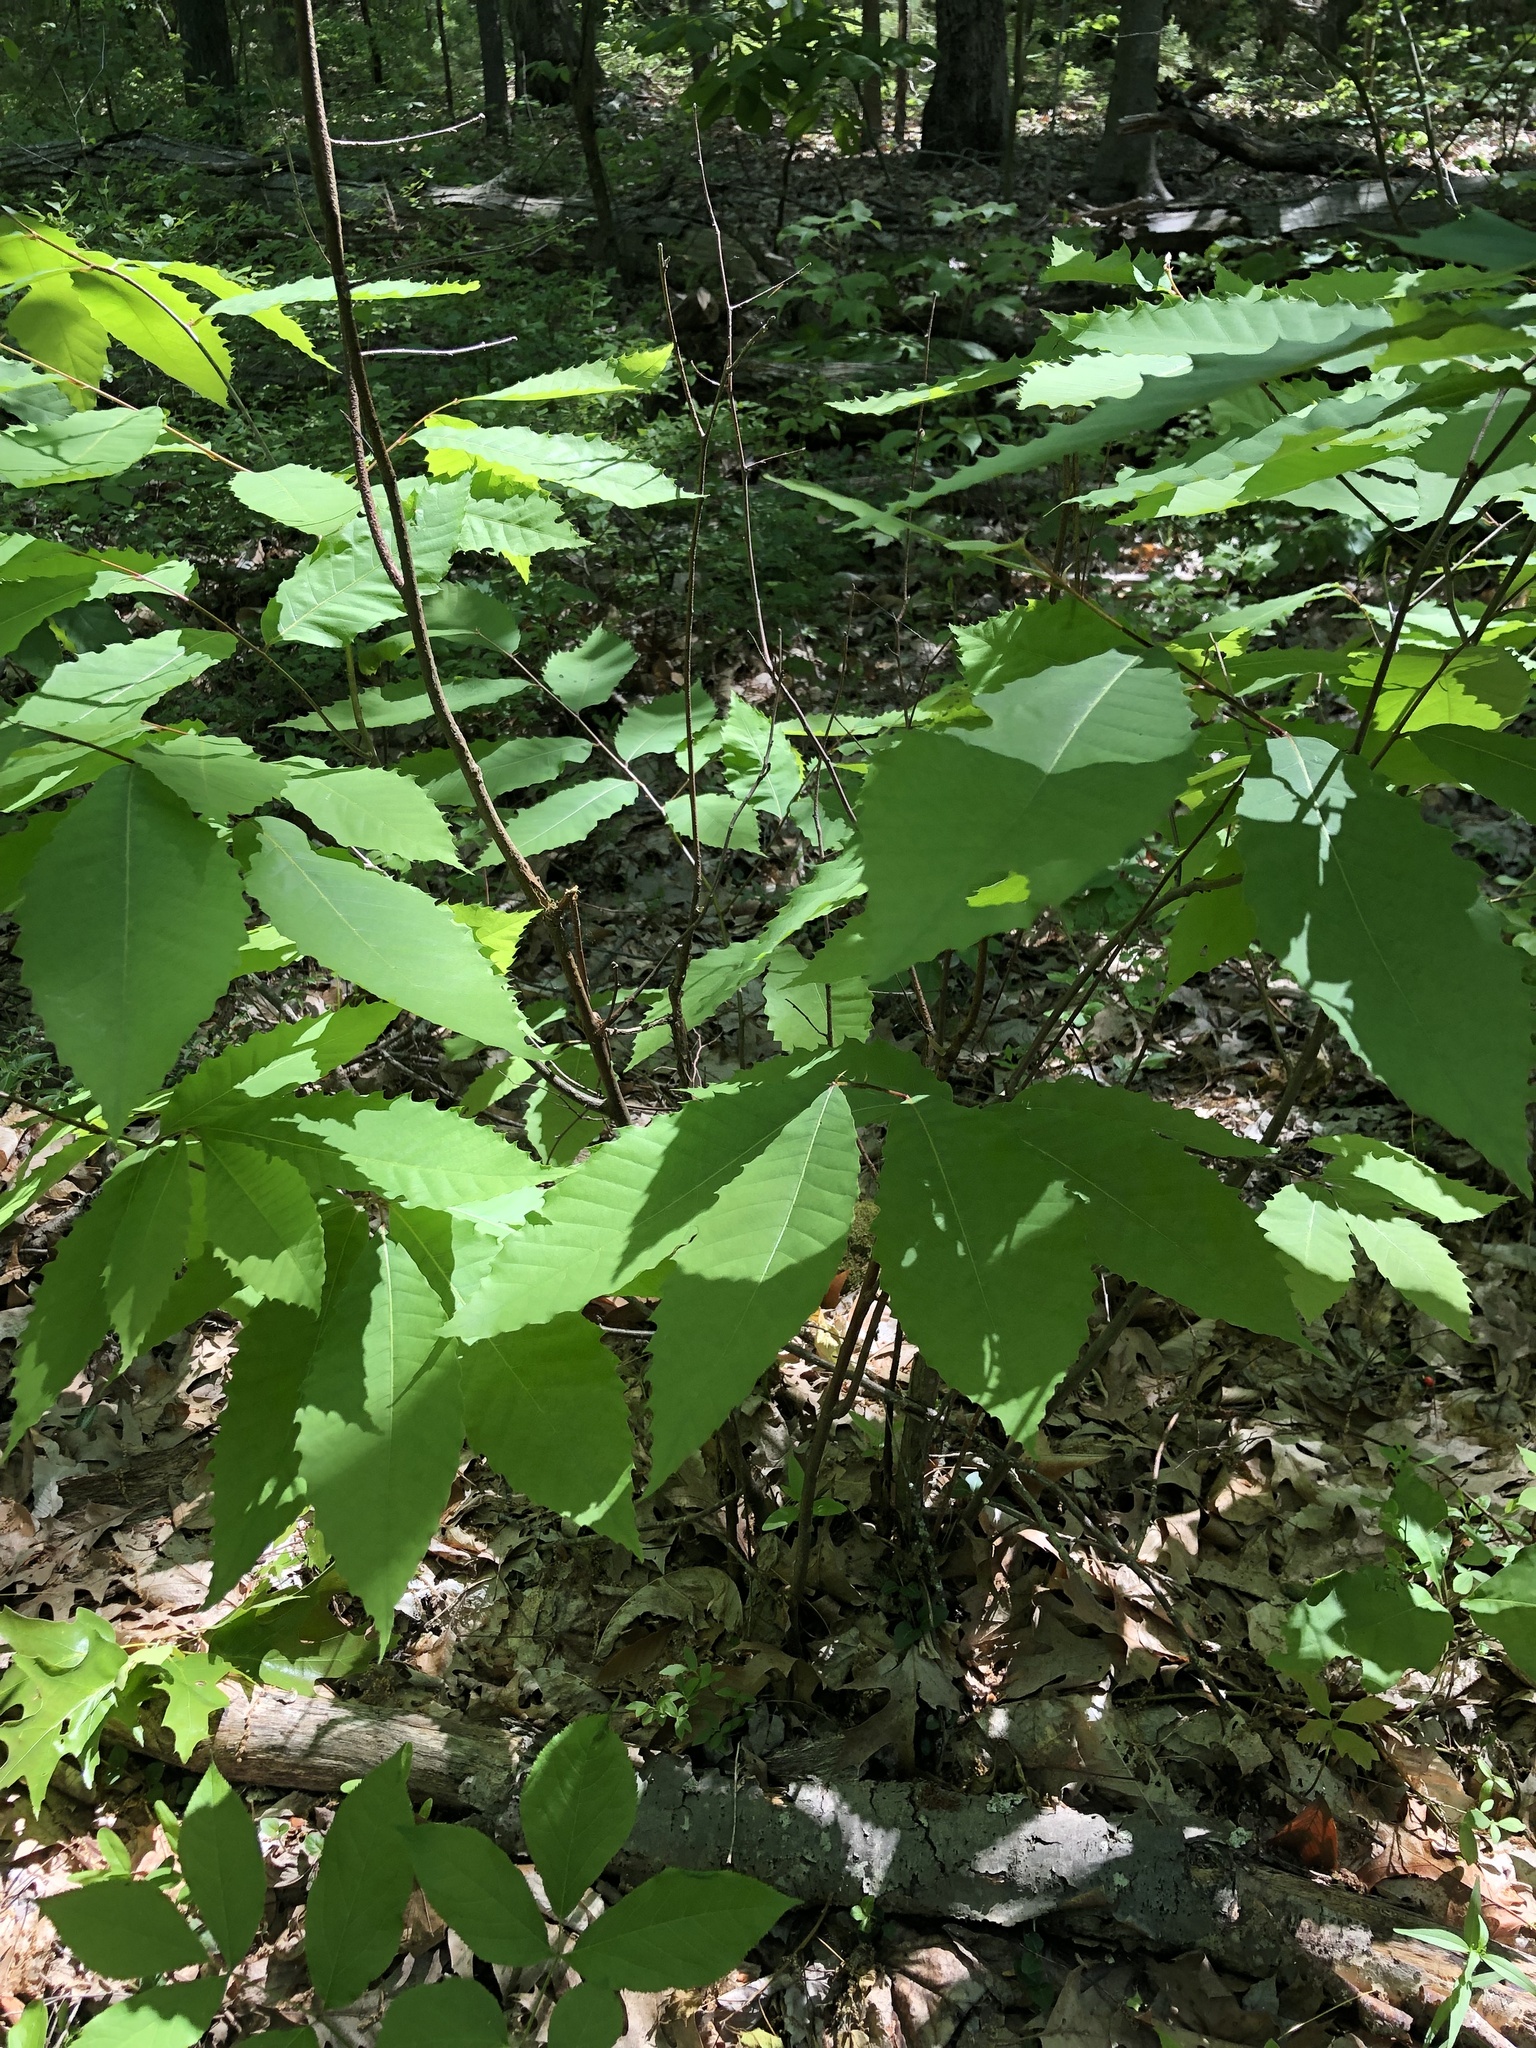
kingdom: Plantae
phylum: Tracheophyta
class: Magnoliopsida
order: Fagales
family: Fagaceae
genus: Castanea
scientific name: Castanea dentata
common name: American chestnut
